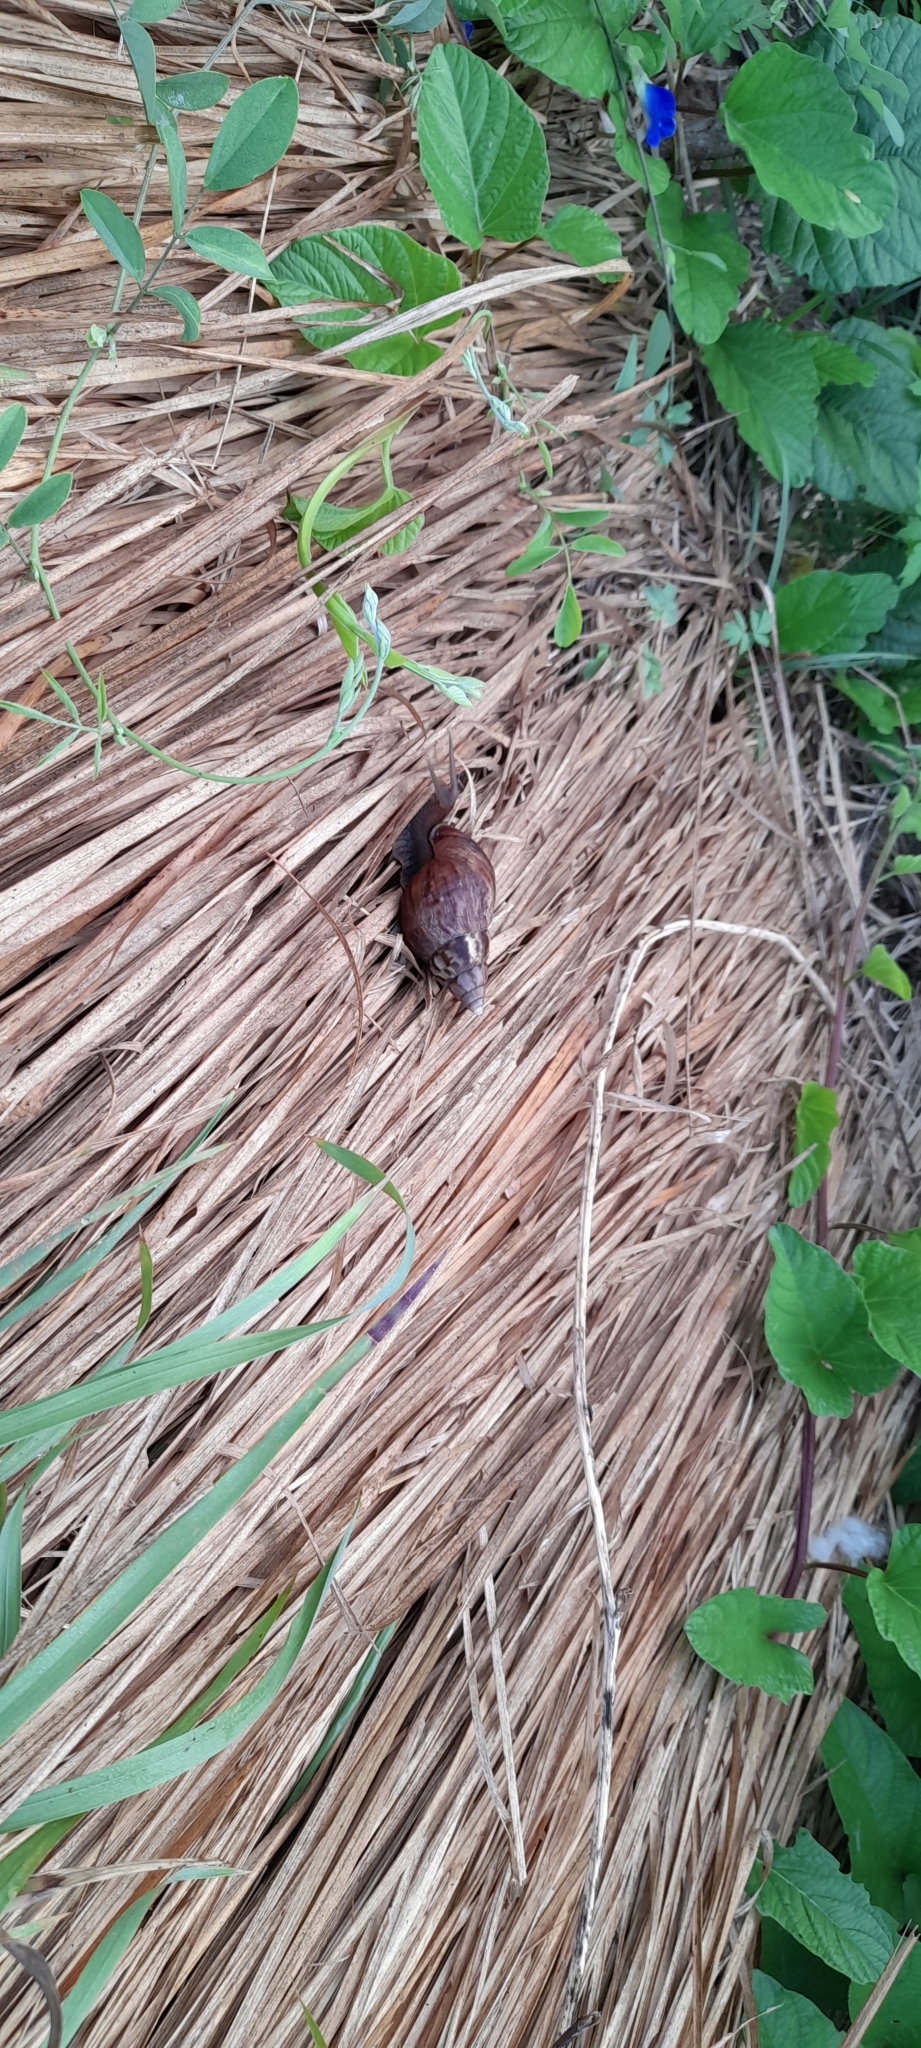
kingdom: Animalia
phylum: Mollusca
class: Gastropoda
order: Stylommatophora
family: Achatinidae
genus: Lissachatina
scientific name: Lissachatina fulica
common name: Giant african snail
